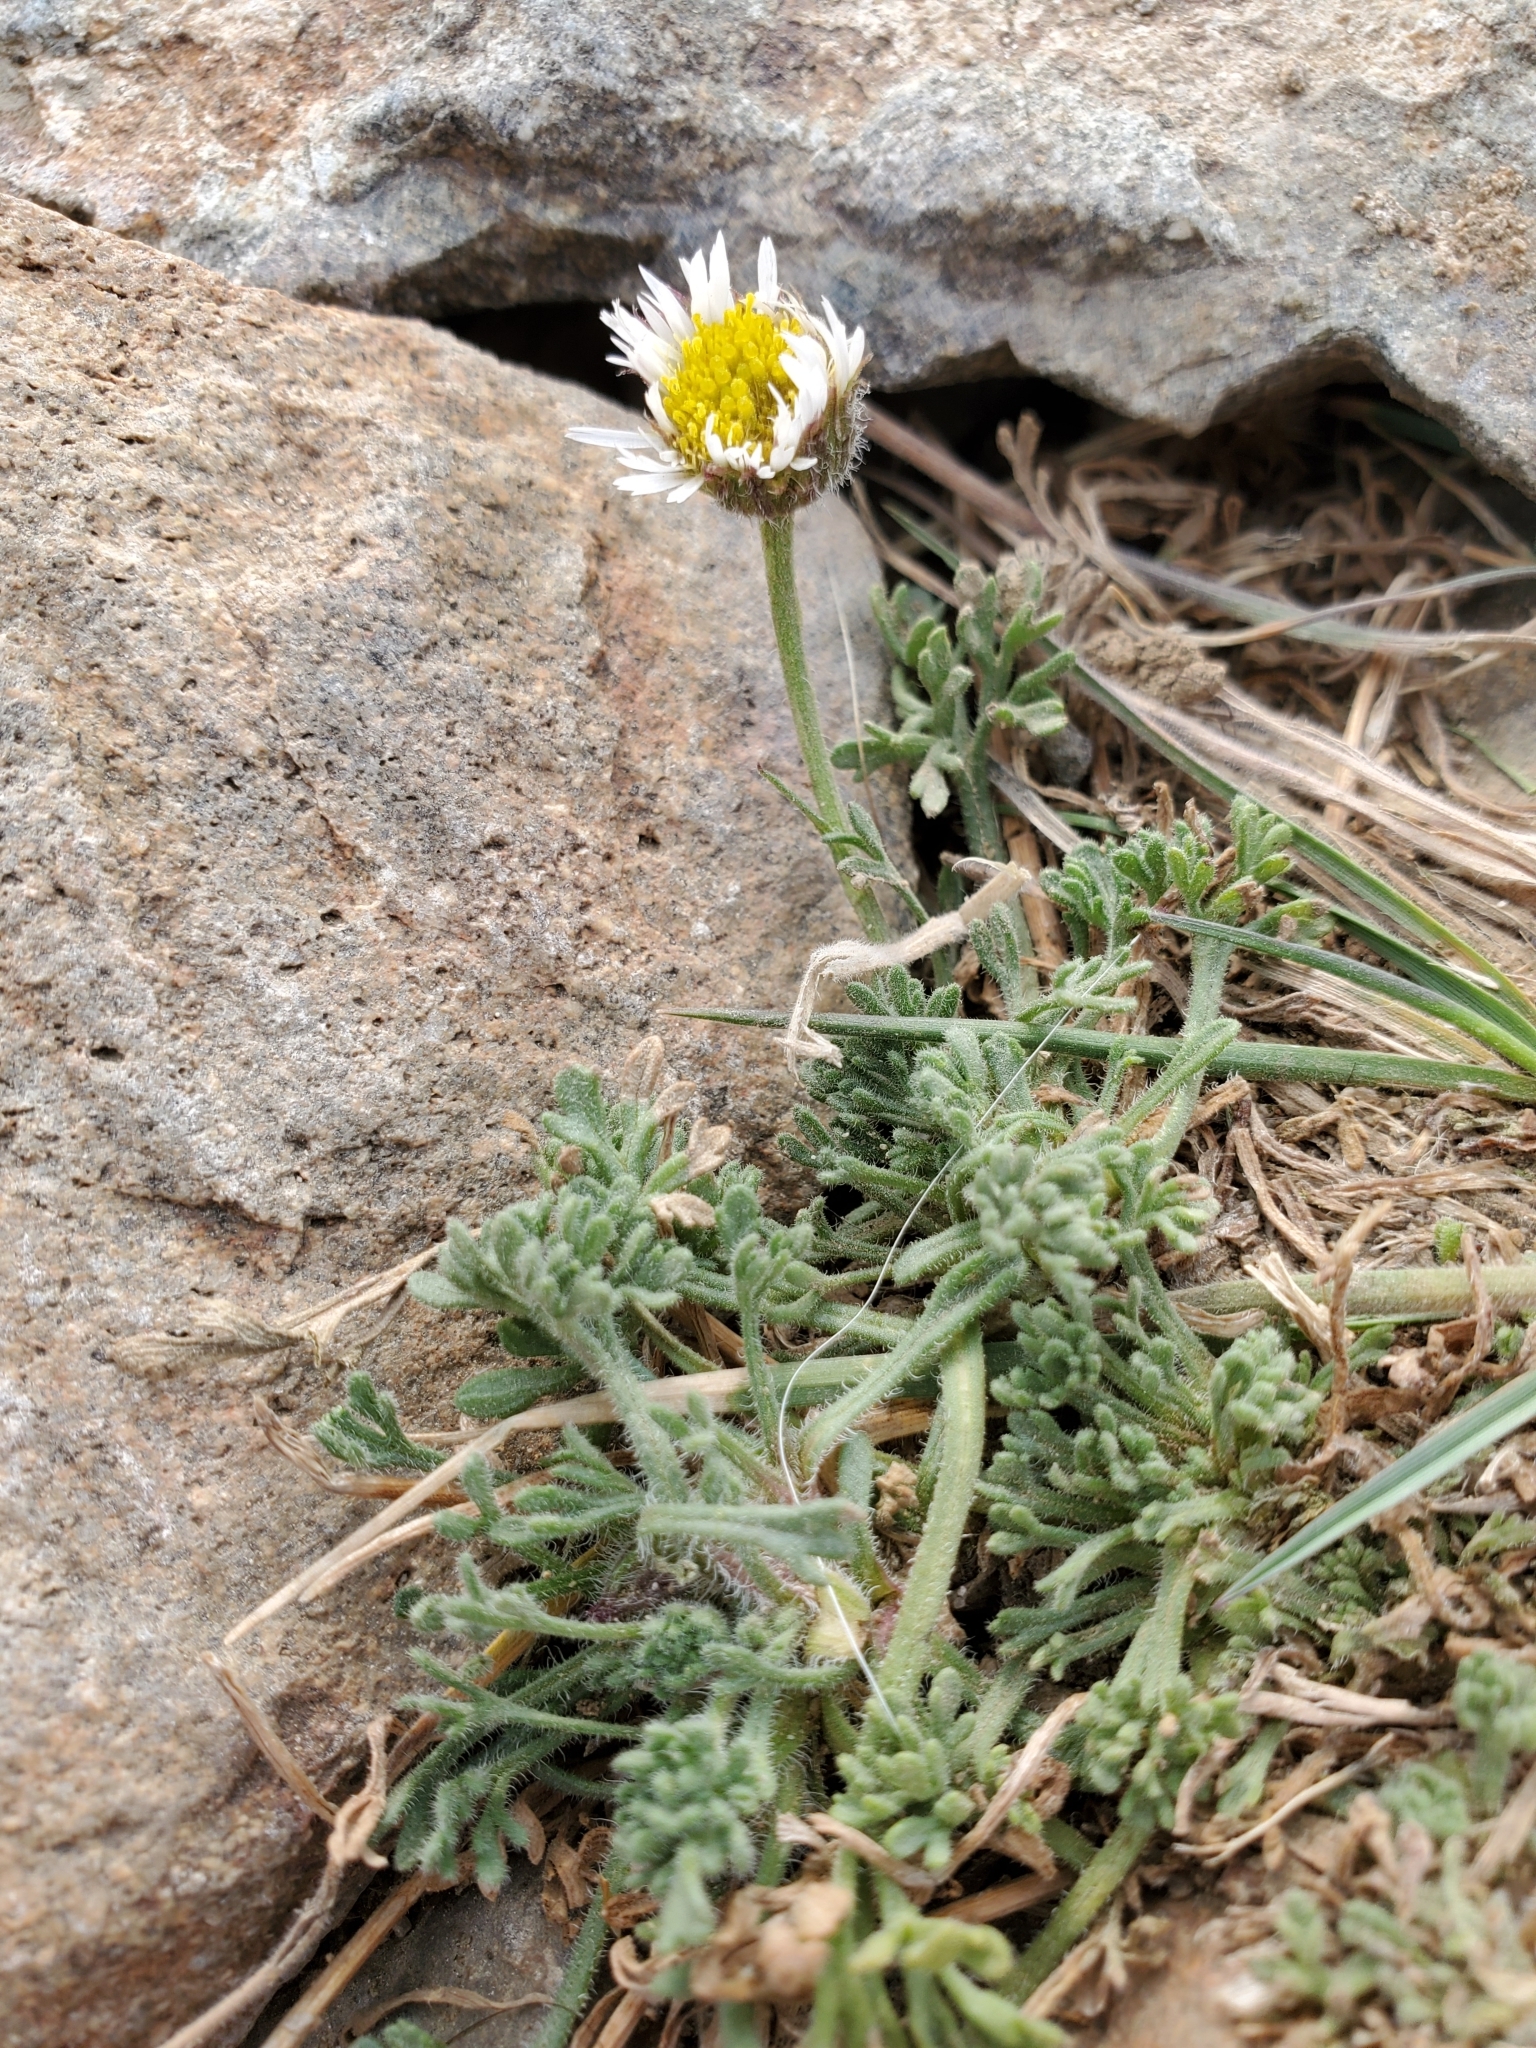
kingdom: Plantae
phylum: Tracheophyta
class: Magnoliopsida
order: Asterales
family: Asteraceae
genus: Erigeron
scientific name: Erigeron compositus
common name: Dwarf mountain fleabane
